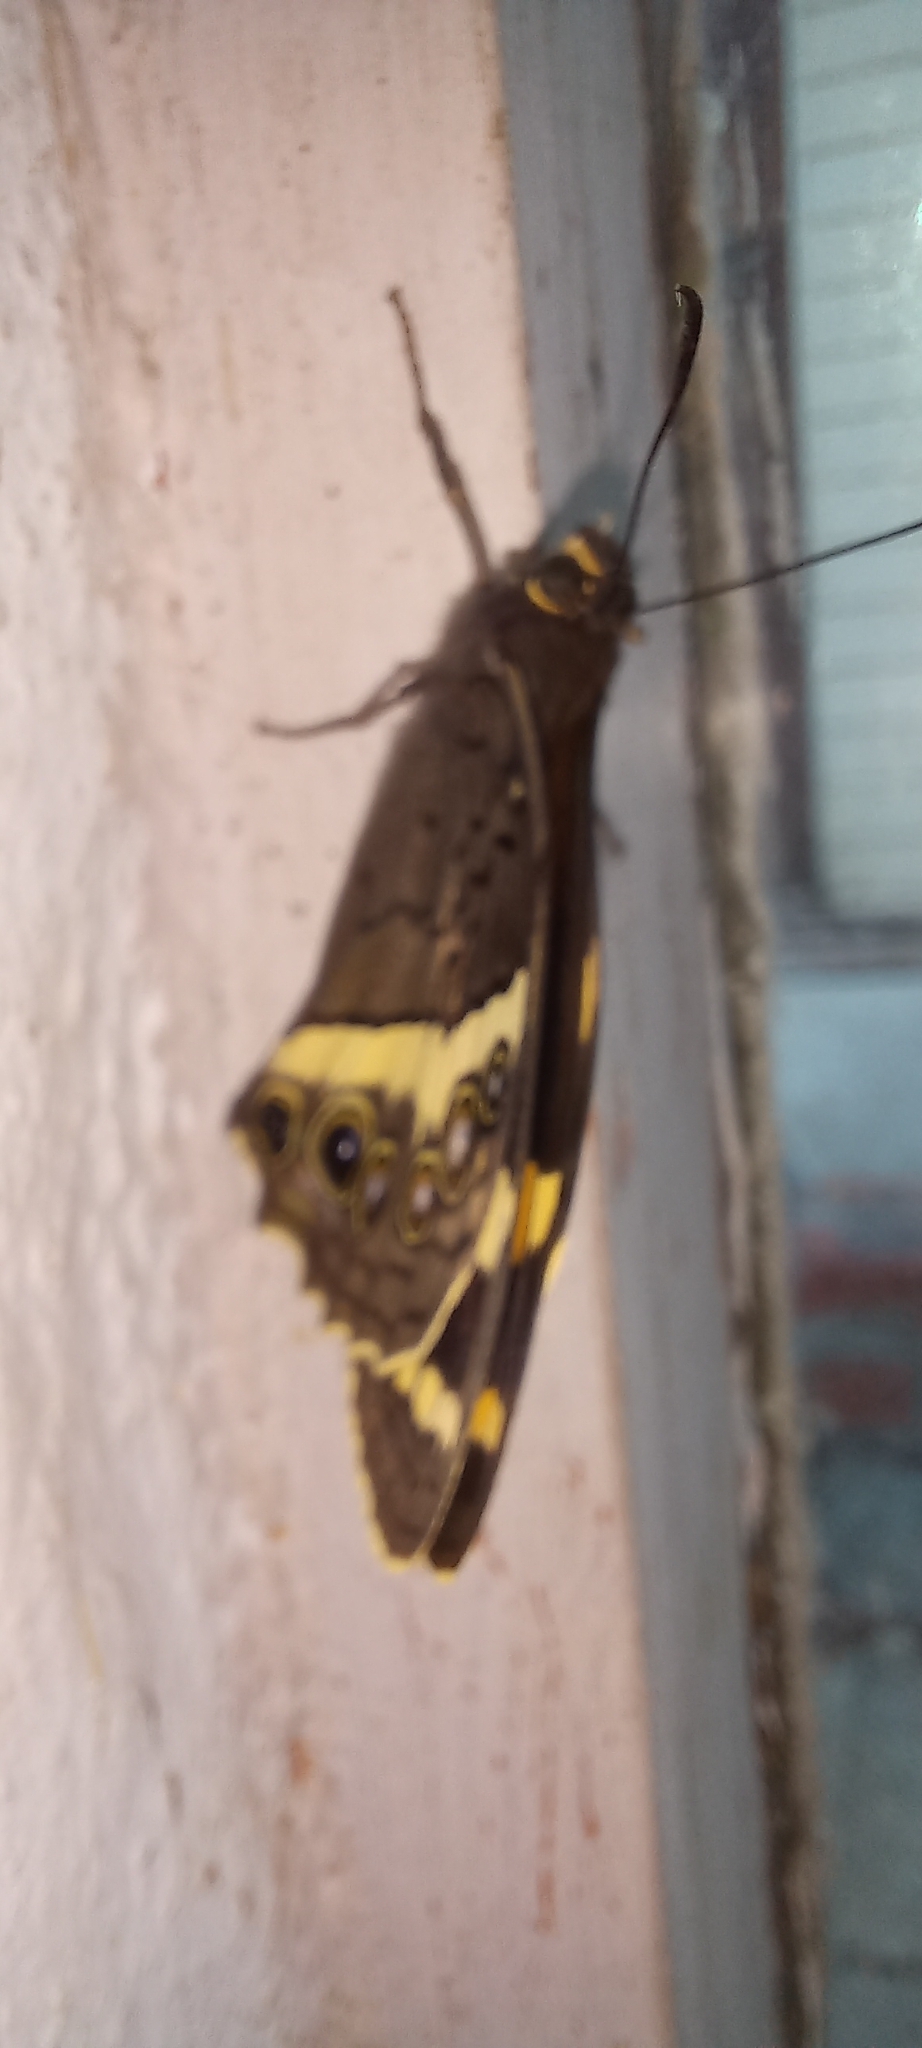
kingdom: Animalia
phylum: Arthropoda
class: Insecta
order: Lepidoptera
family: Nymphalidae
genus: Meneris
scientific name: Meneris Aeropetes tulbaghia
